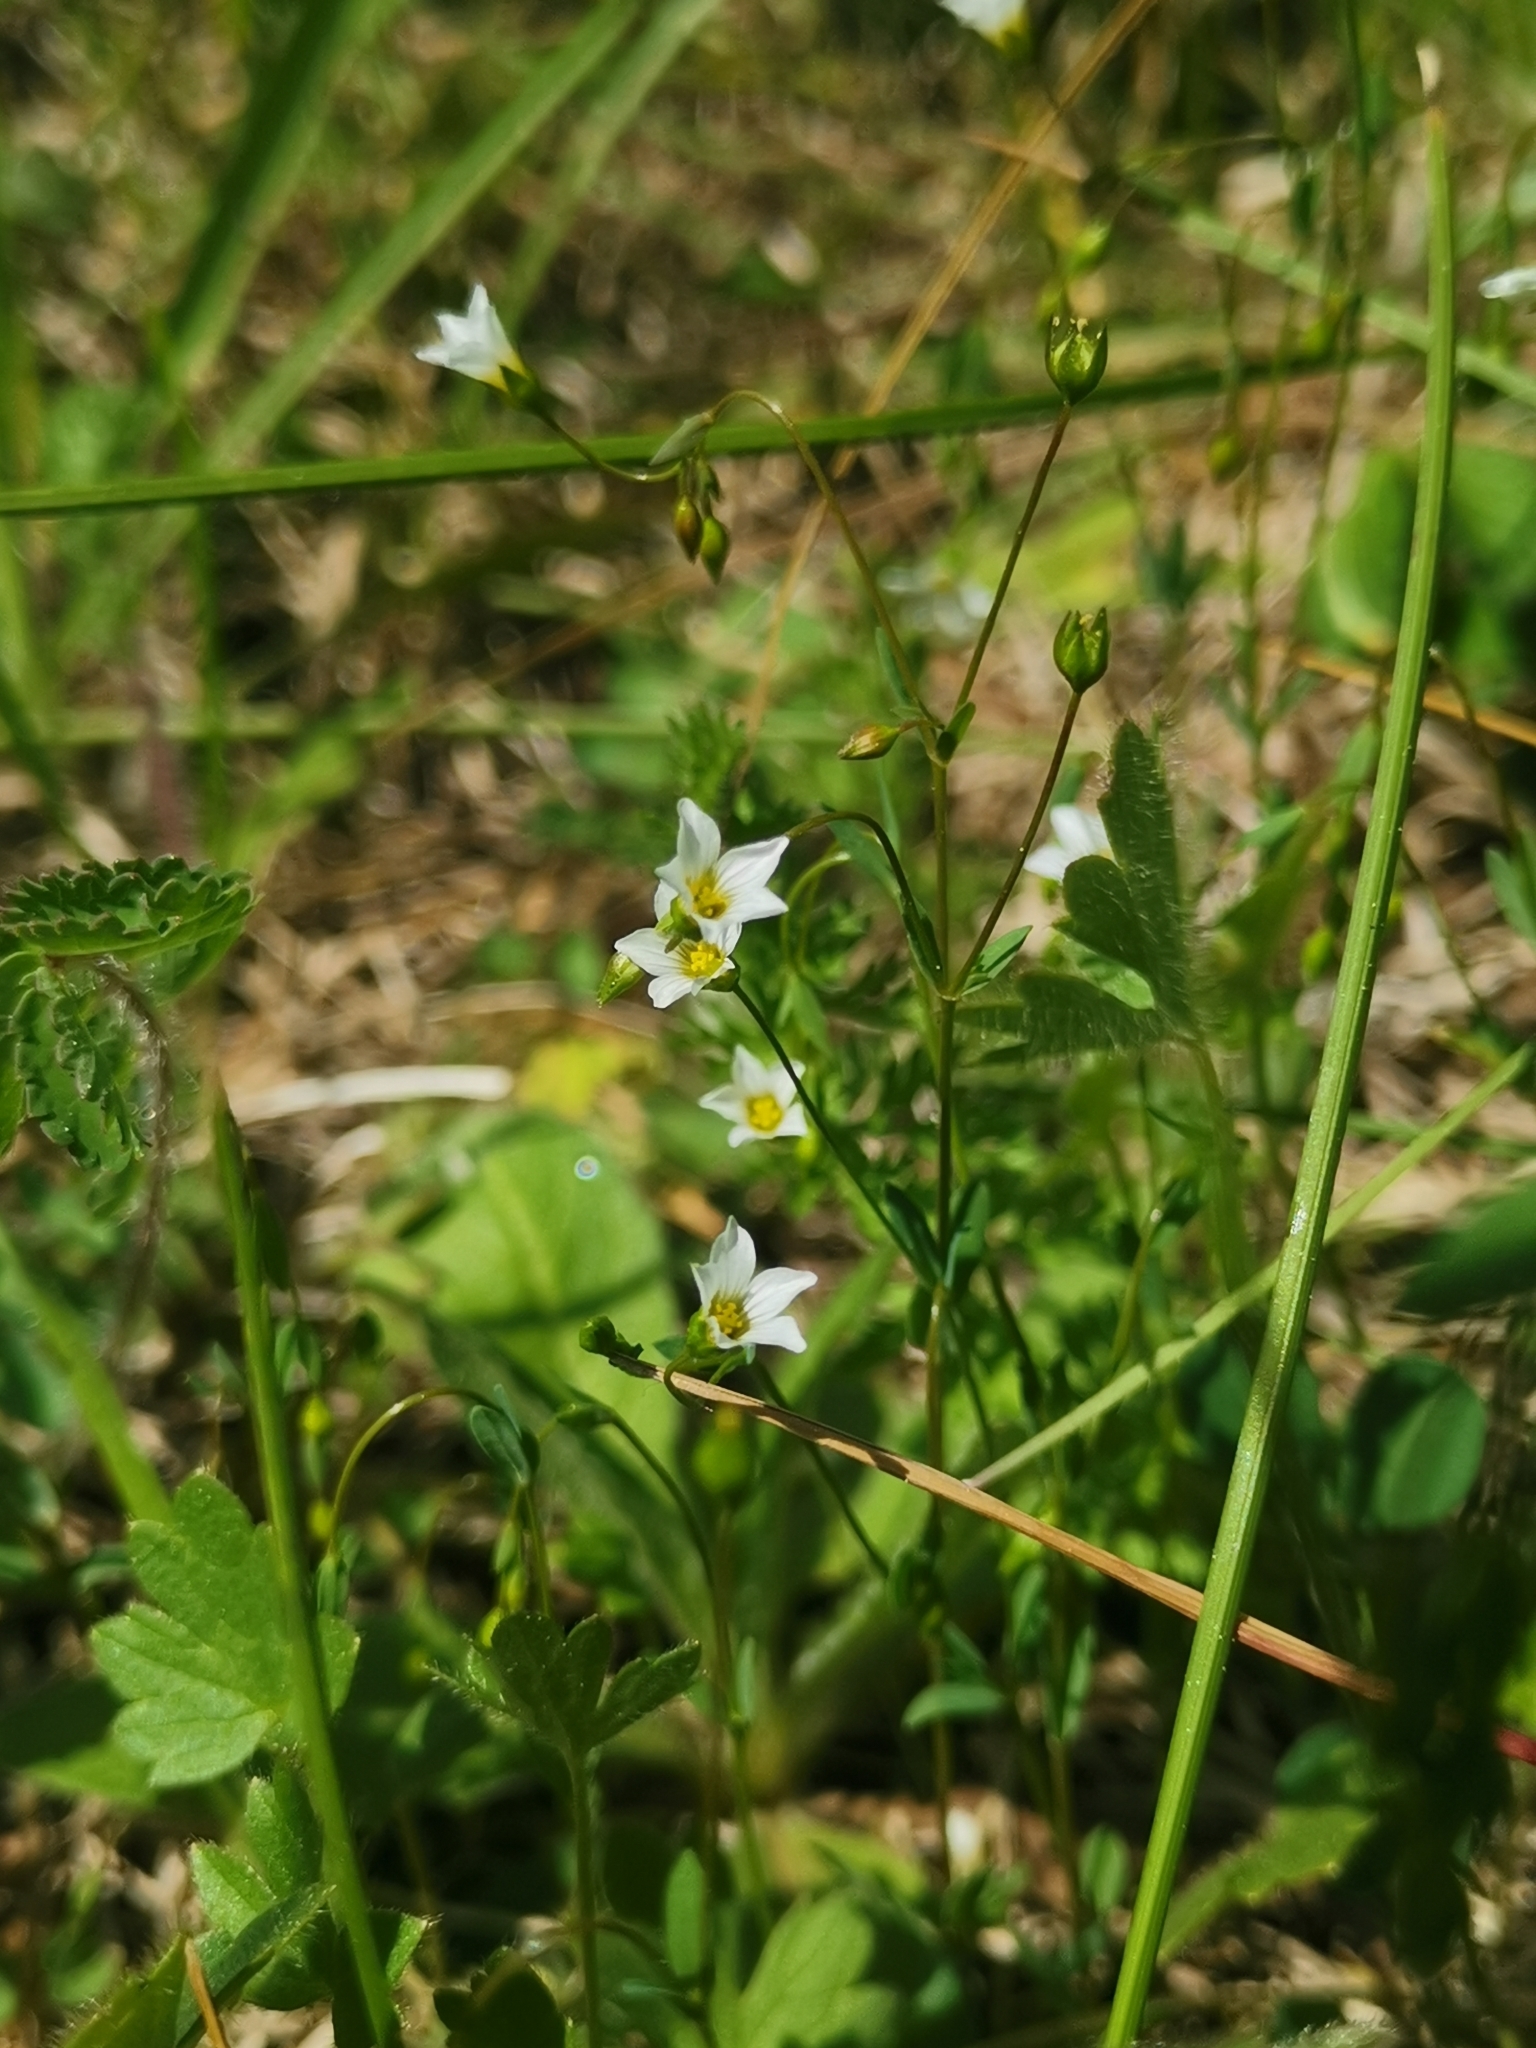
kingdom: Plantae
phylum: Tracheophyta
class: Magnoliopsida
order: Malpighiales
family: Linaceae
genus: Linum
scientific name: Linum catharticum
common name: Fairy flax
